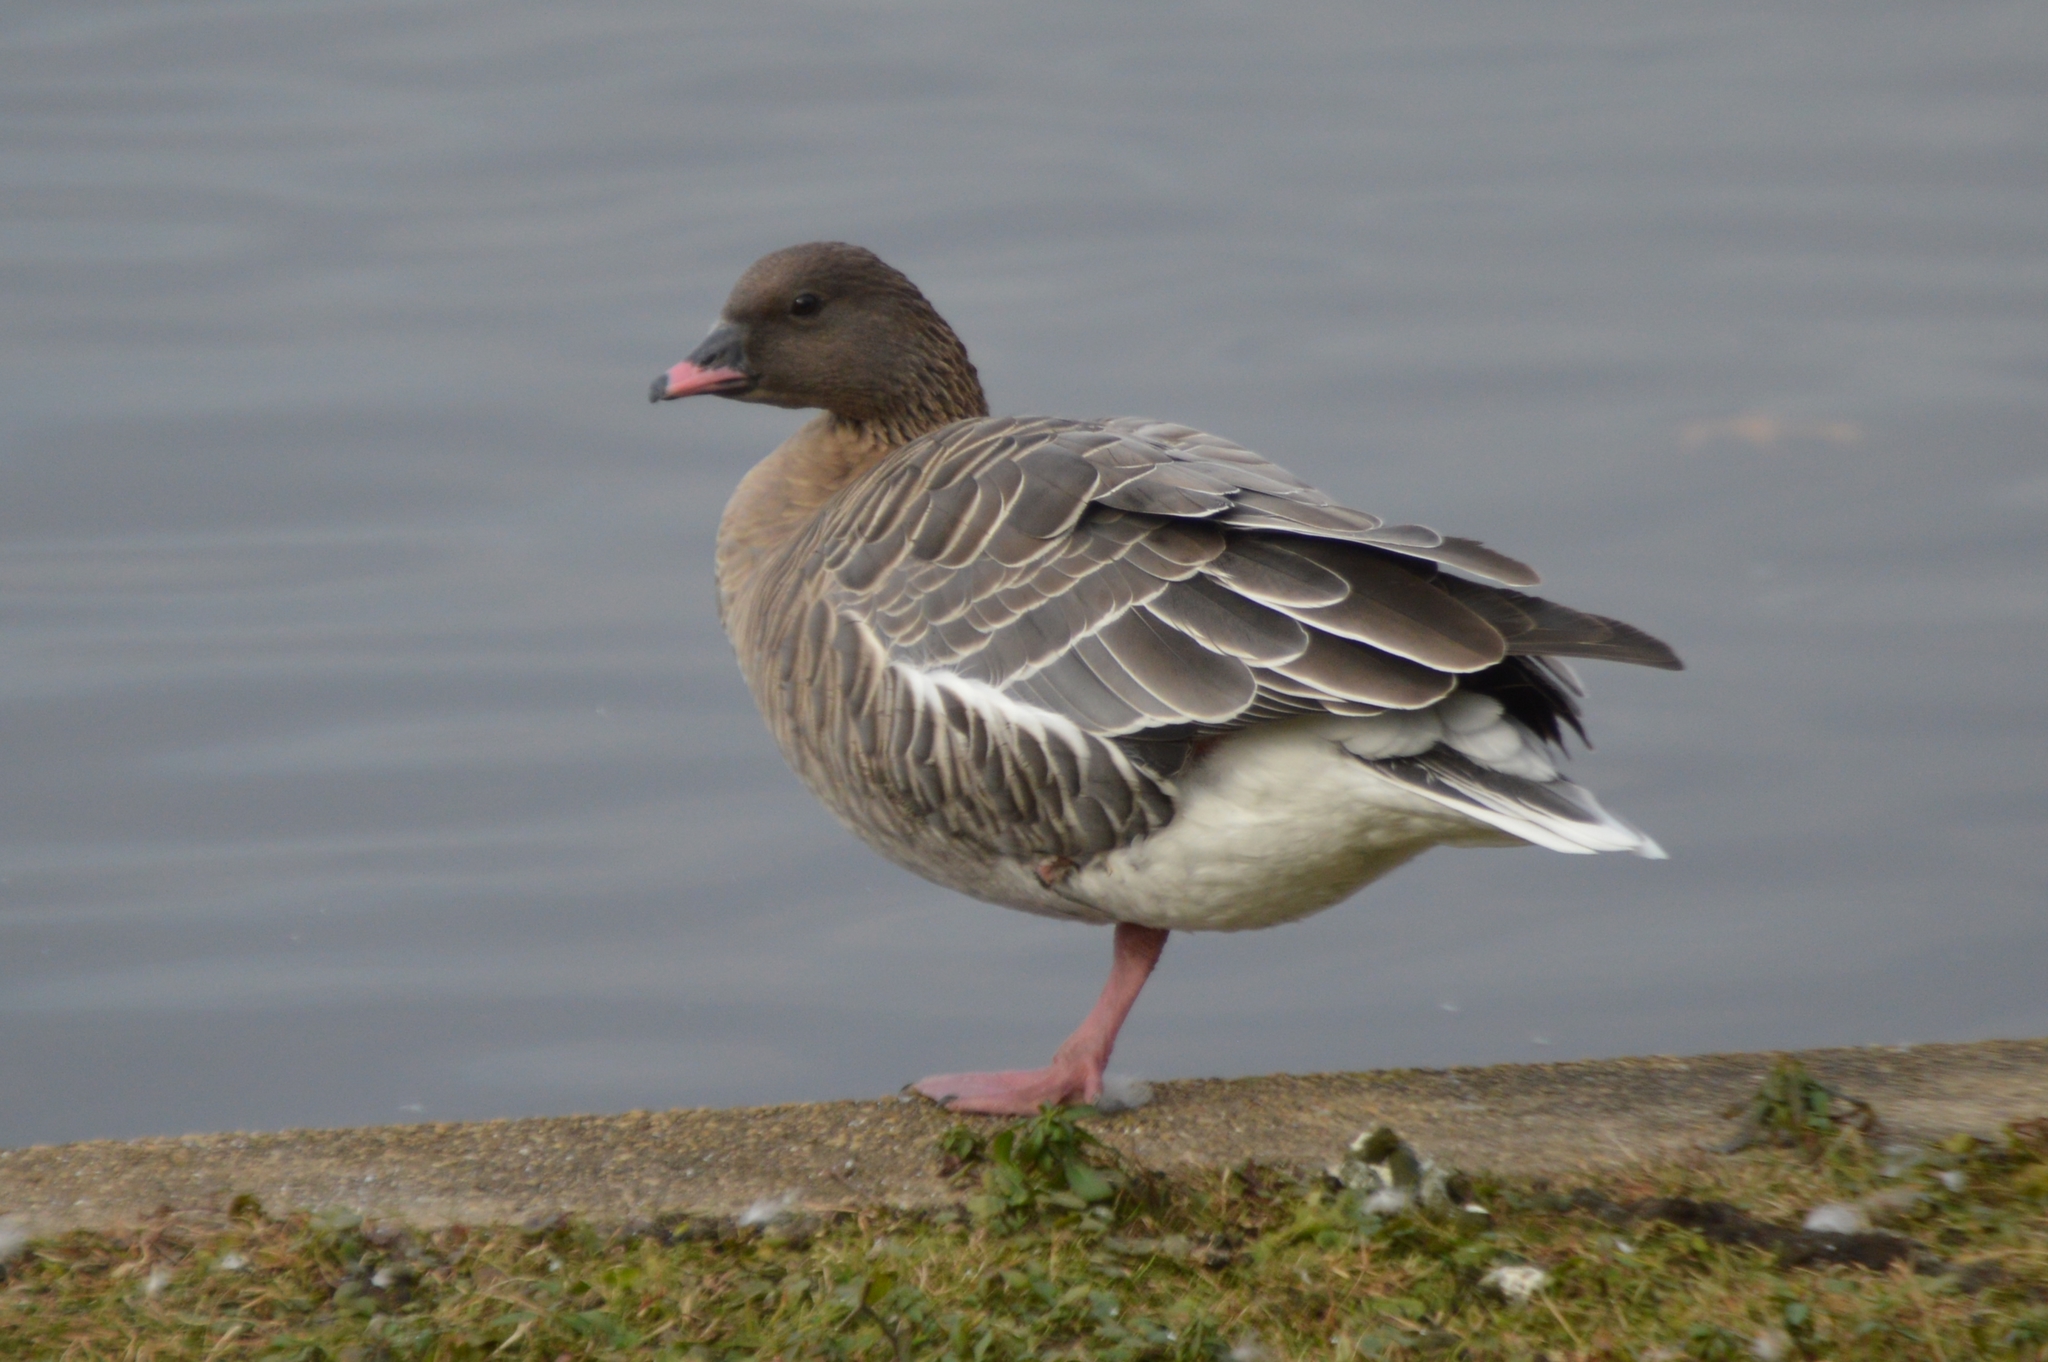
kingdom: Animalia
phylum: Chordata
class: Aves
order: Anseriformes
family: Anatidae
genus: Anser
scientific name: Anser brachyrhynchus
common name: Pink-footed goose
